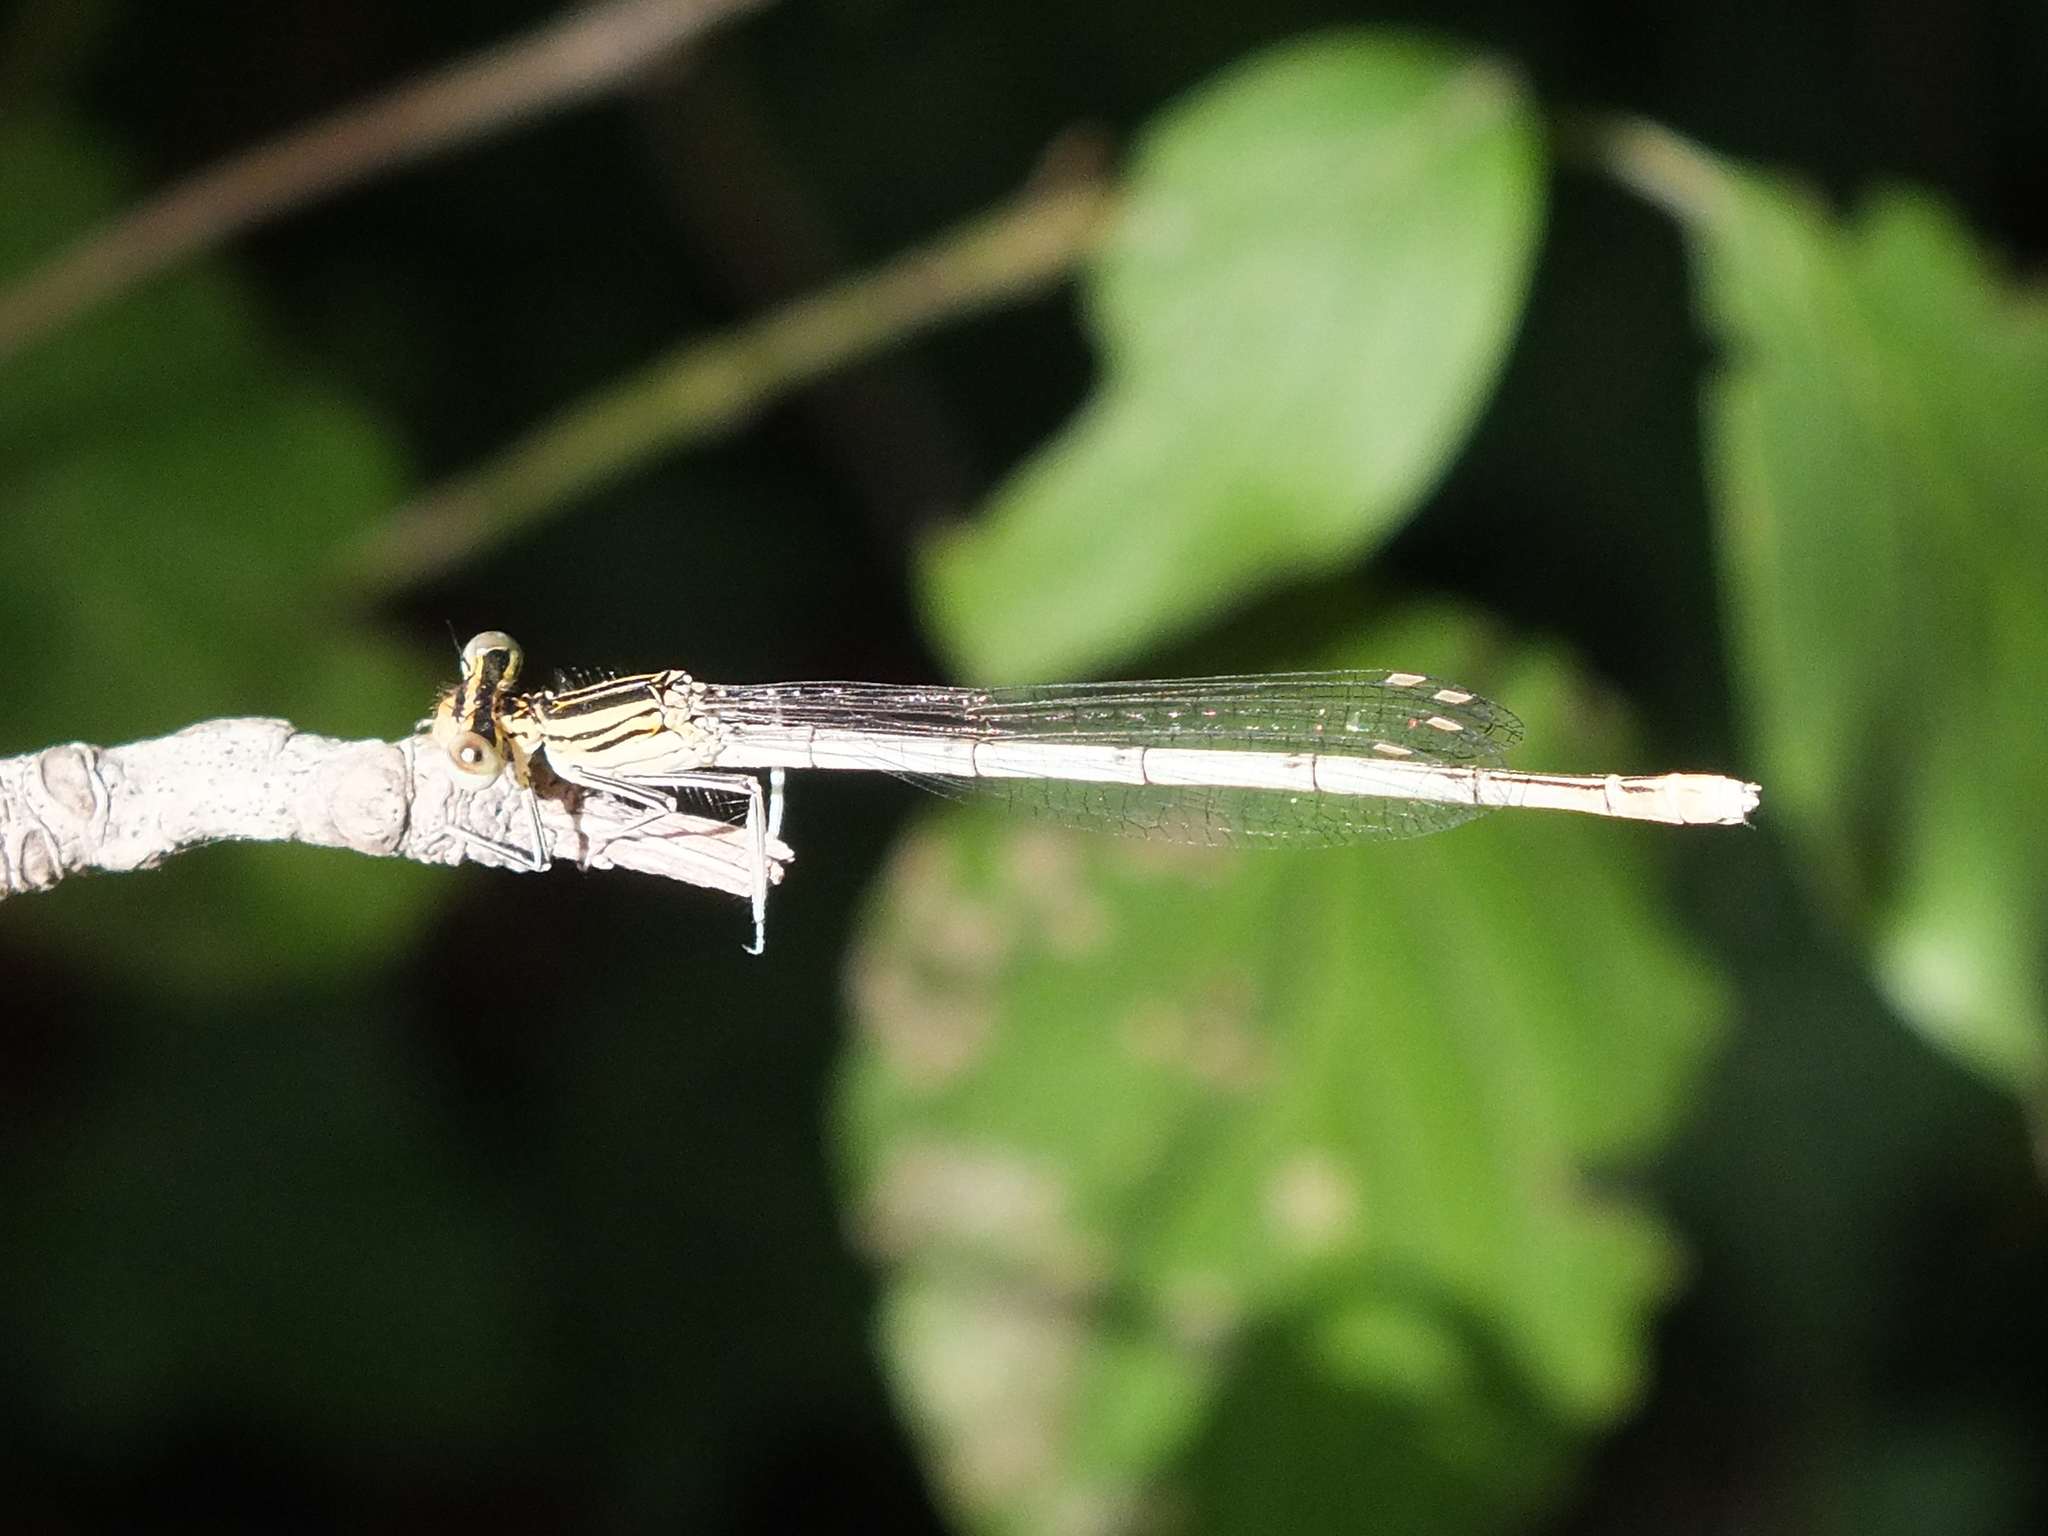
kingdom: Animalia
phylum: Arthropoda
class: Insecta
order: Odonata
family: Platycnemididae
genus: Platycnemis
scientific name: Platycnemis pennipes
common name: White-legged damselfly
